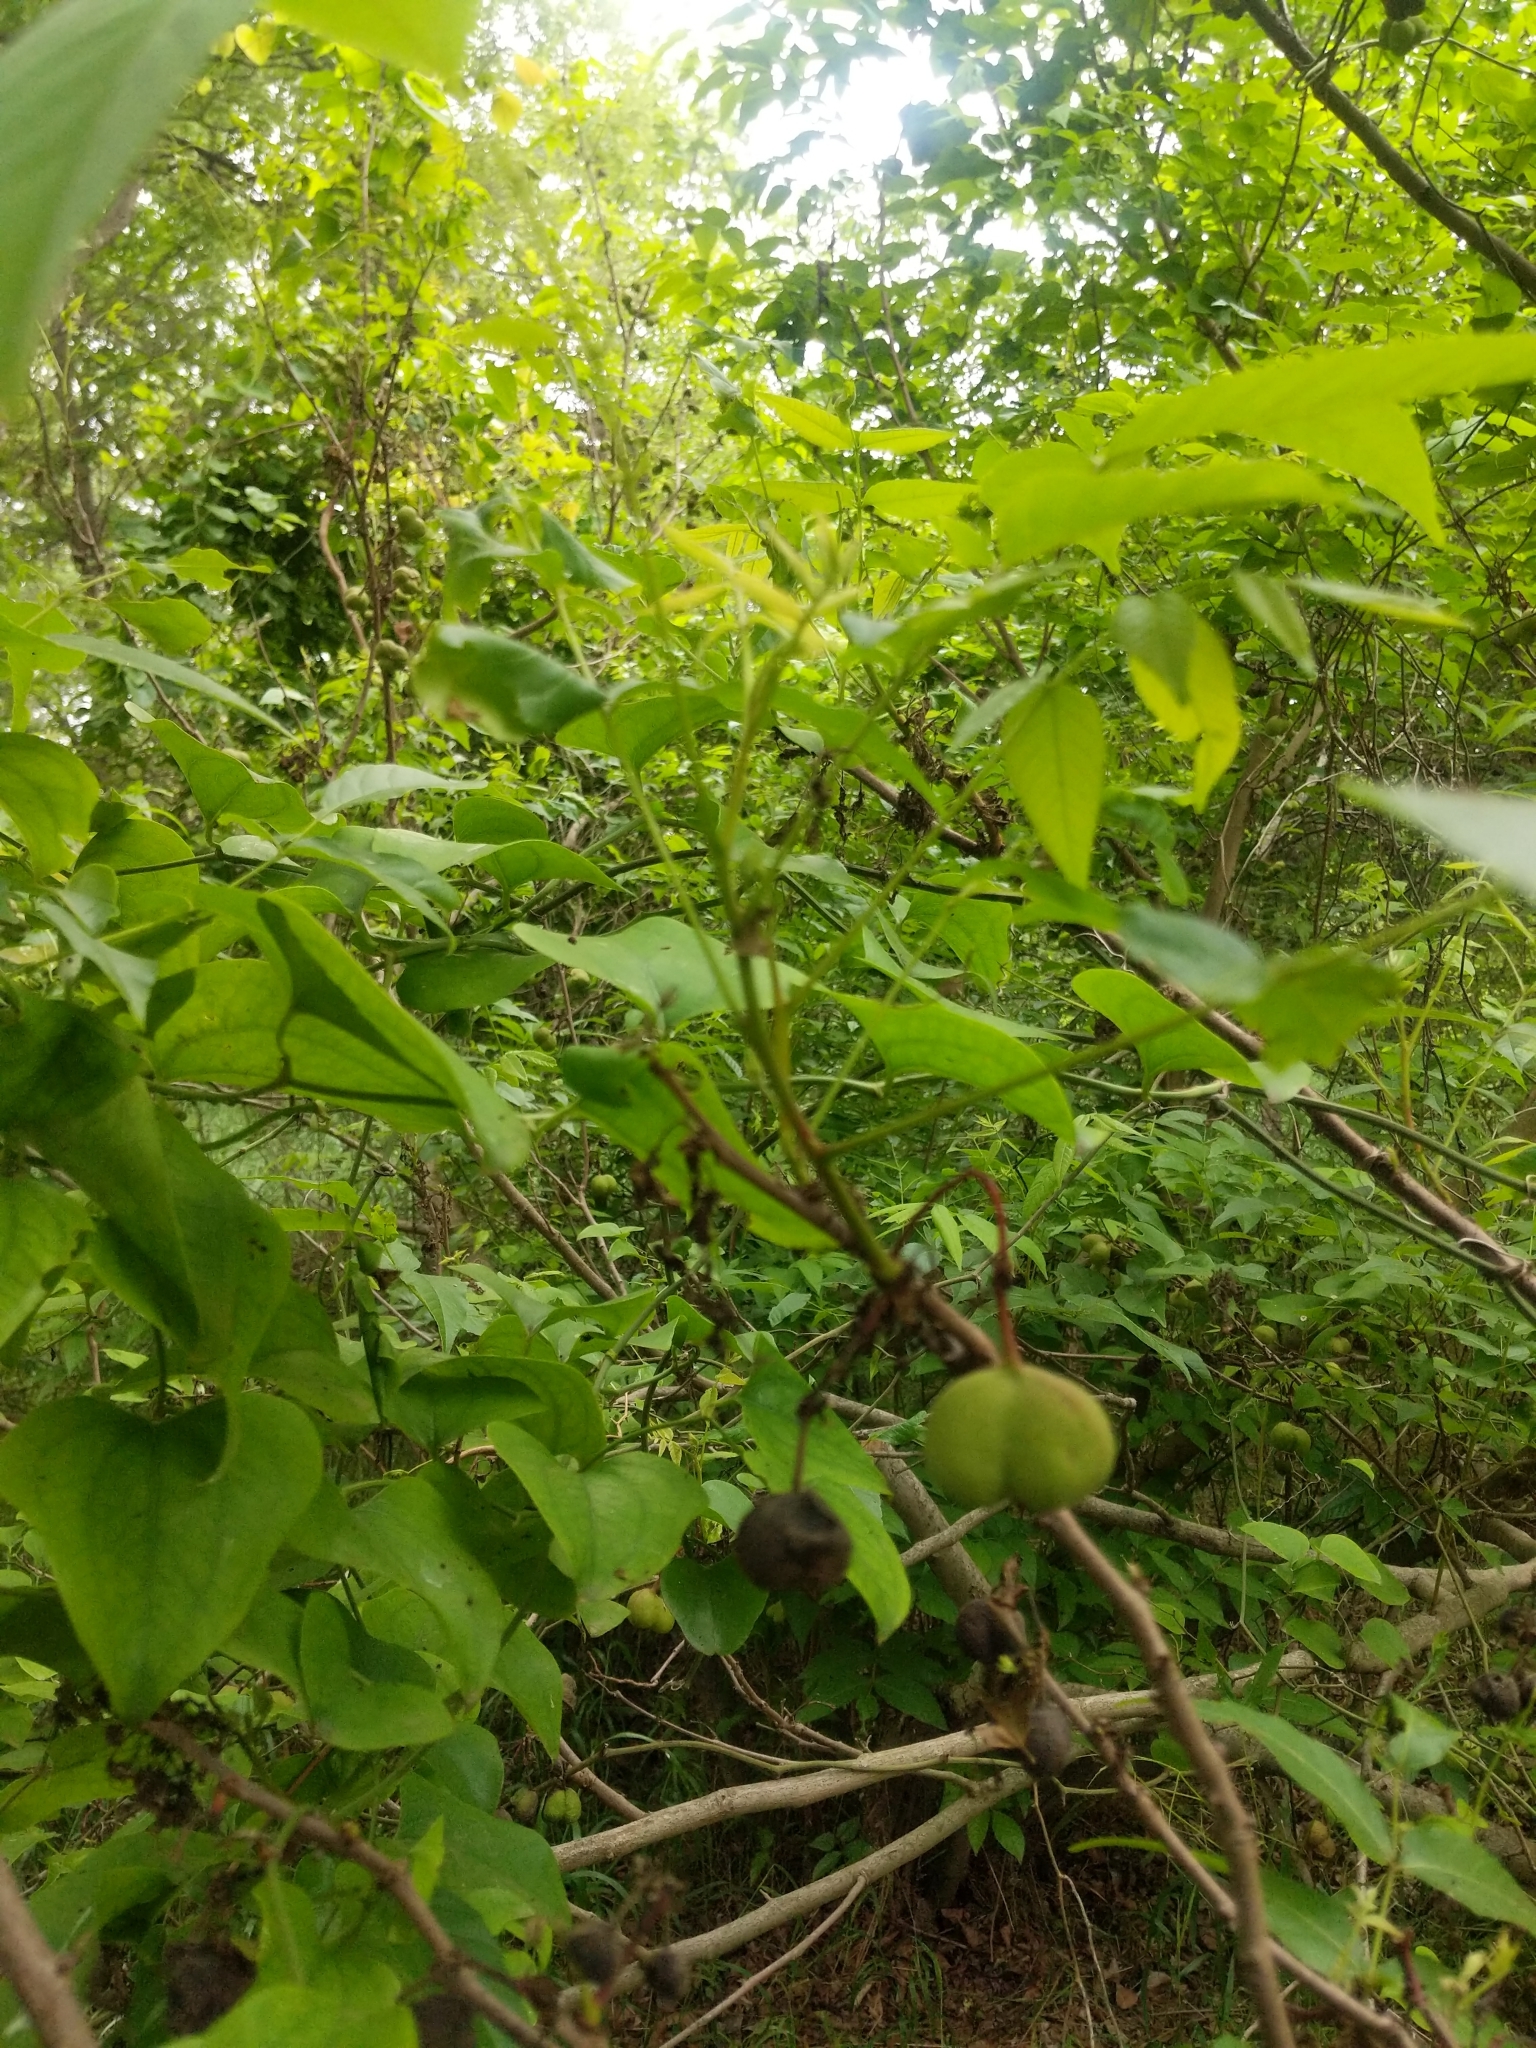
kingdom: Plantae
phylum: Tracheophyta
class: Magnoliopsida
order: Sapindales
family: Sapindaceae
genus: Ungnadia
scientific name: Ungnadia speciosa
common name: Texas-buckeye
